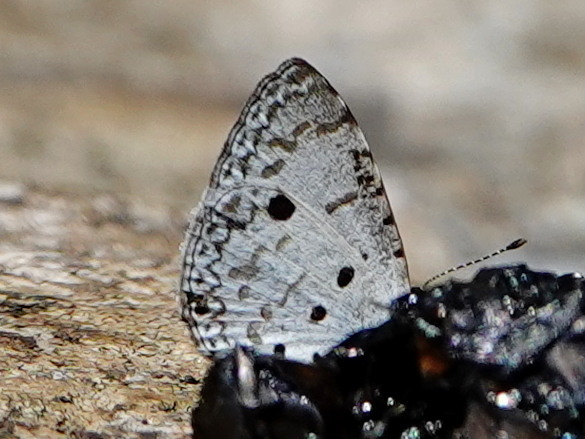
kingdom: Animalia
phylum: Arthropoda
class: Insecta
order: Lepidoptera
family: Lycaenidae
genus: Megisba
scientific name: Megisba malaya
